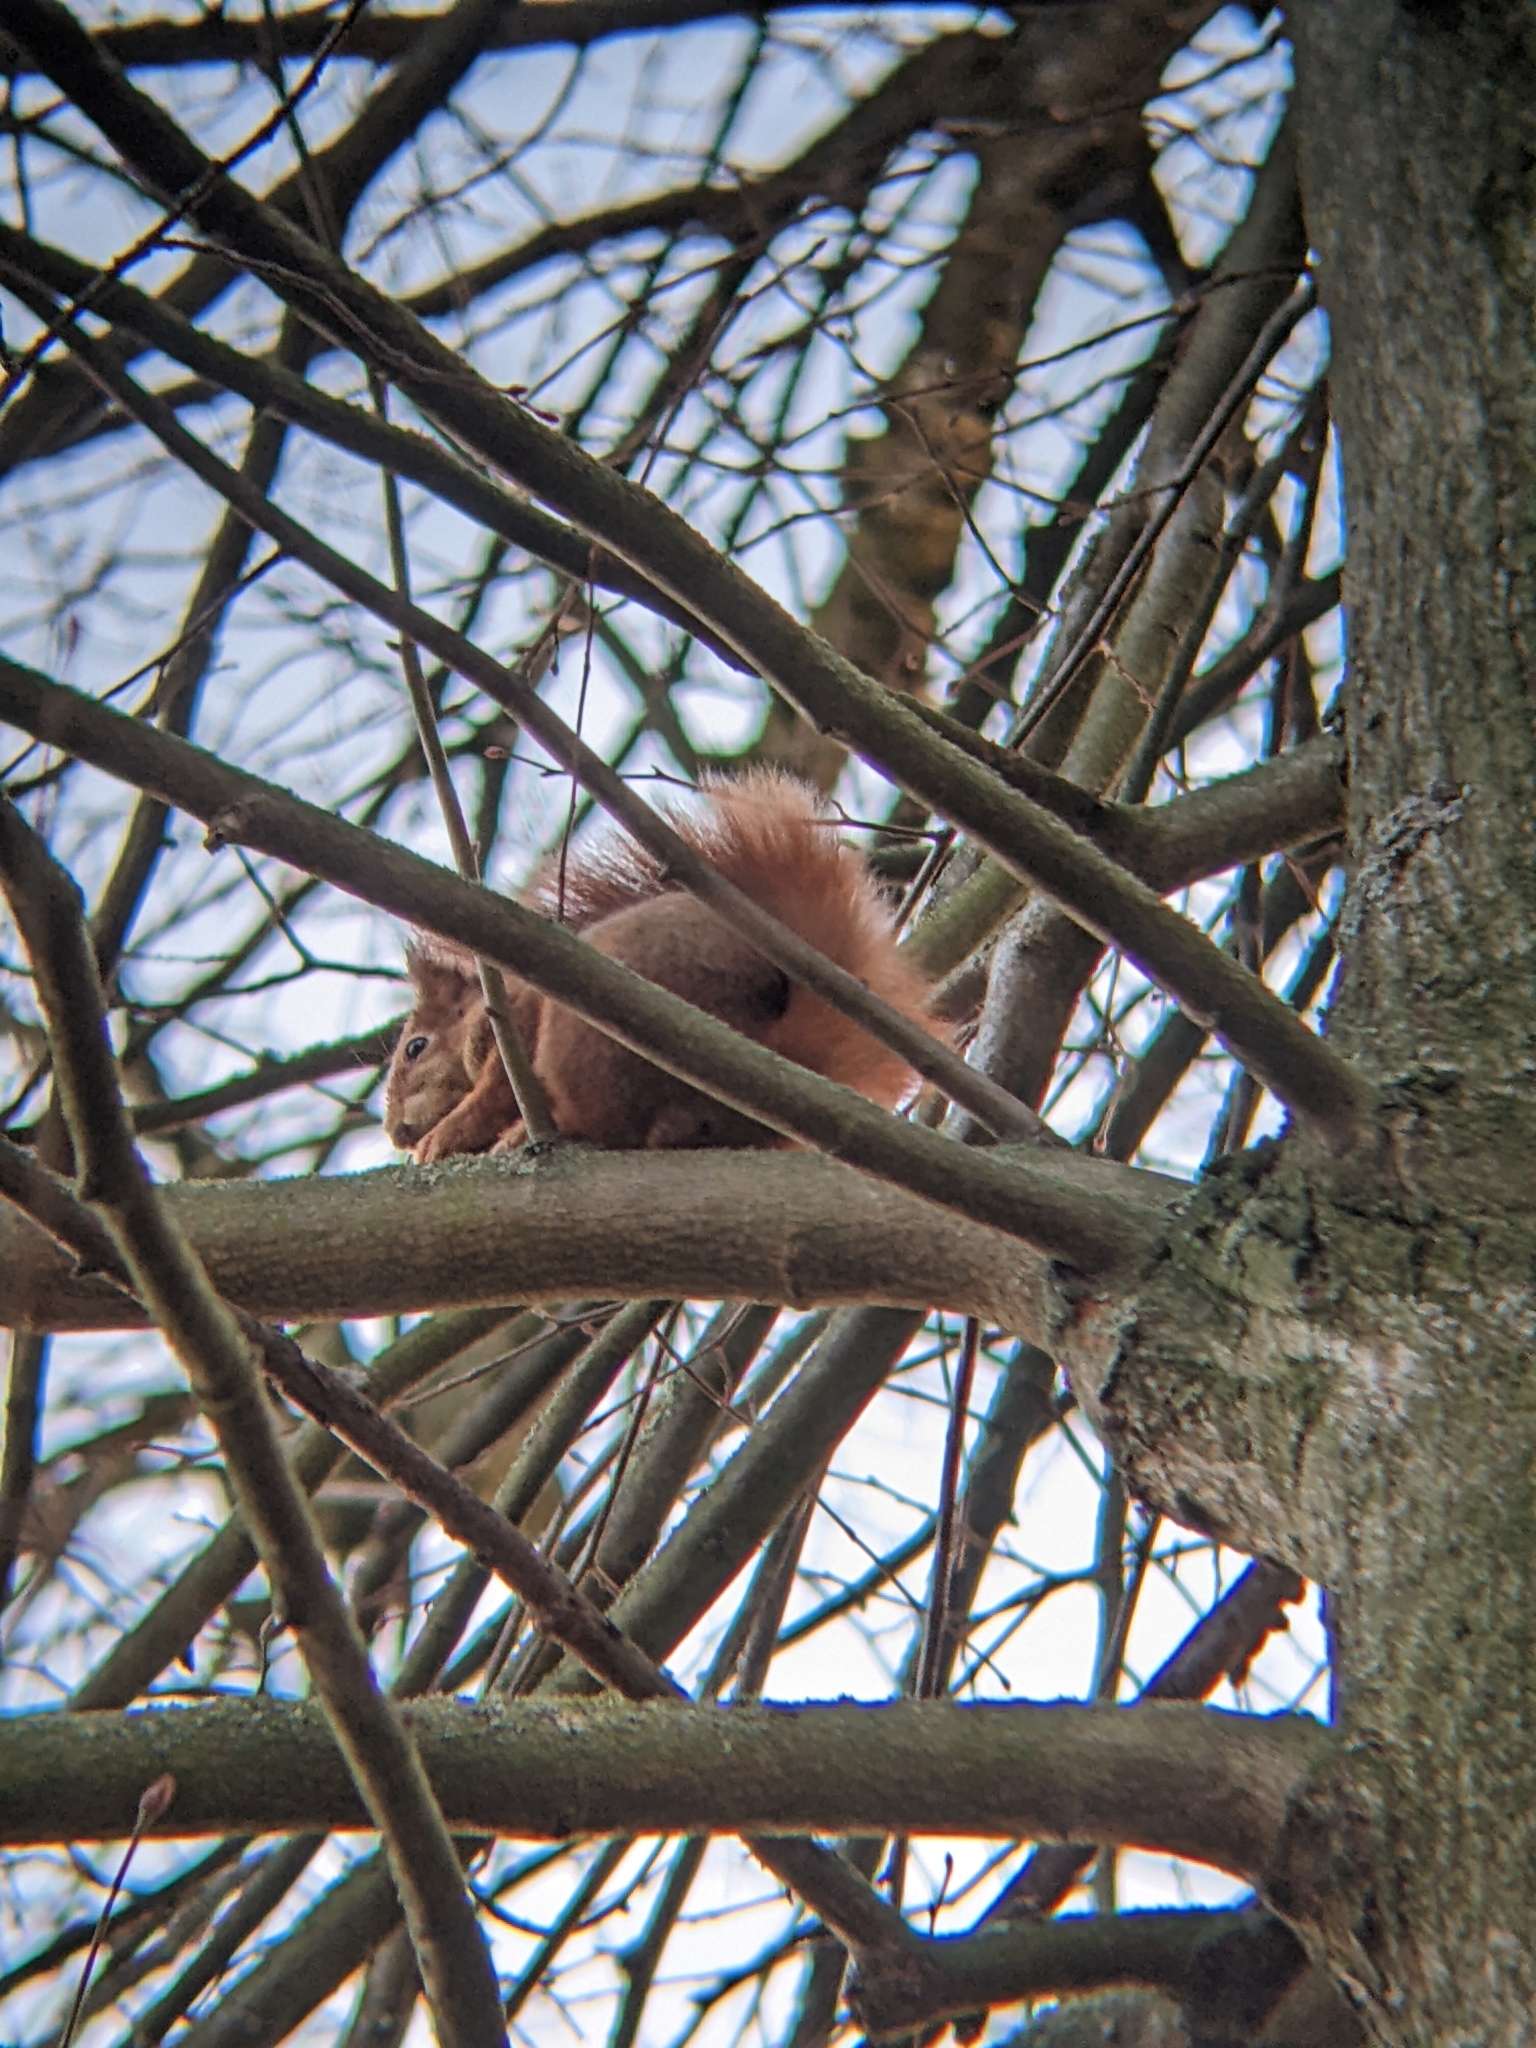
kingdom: Animalia
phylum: Chordata
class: Mammalia
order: Rodentia
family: Sciuridae
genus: Sciurus
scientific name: Sciurus vulgaris
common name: Eurasian red squirrel
